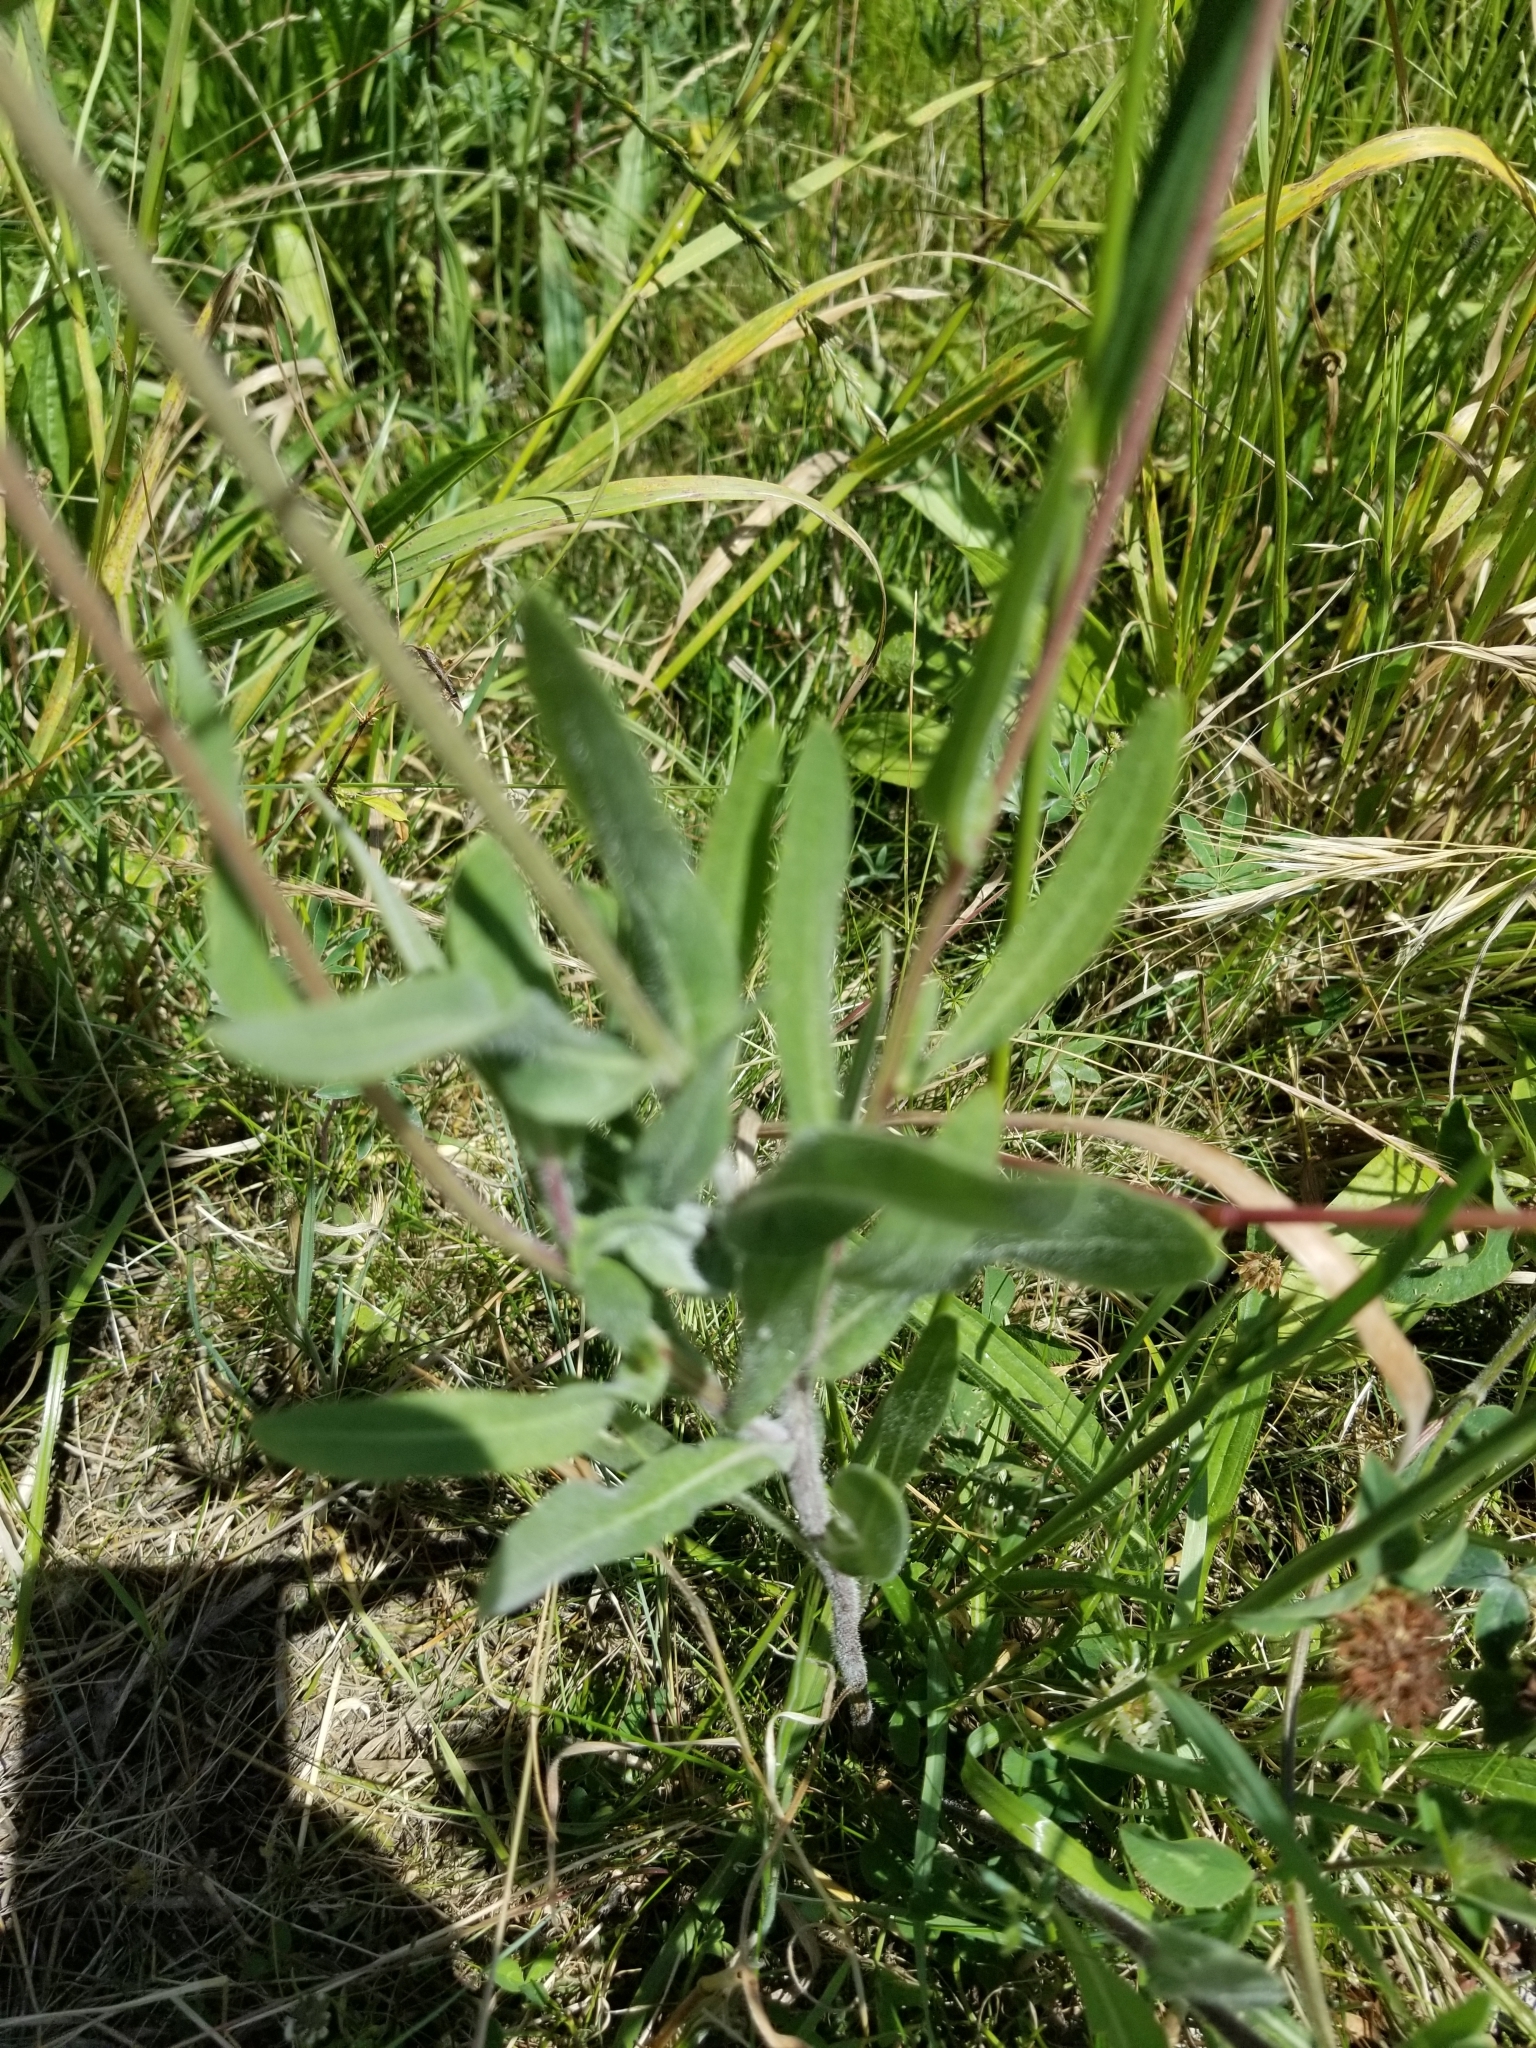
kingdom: Plantae
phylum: Tracheophyta
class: Magnoliopsida
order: Asterales
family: Asteraceae
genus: Gaillardia
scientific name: Gaillardia pulchella
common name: Firewheel
